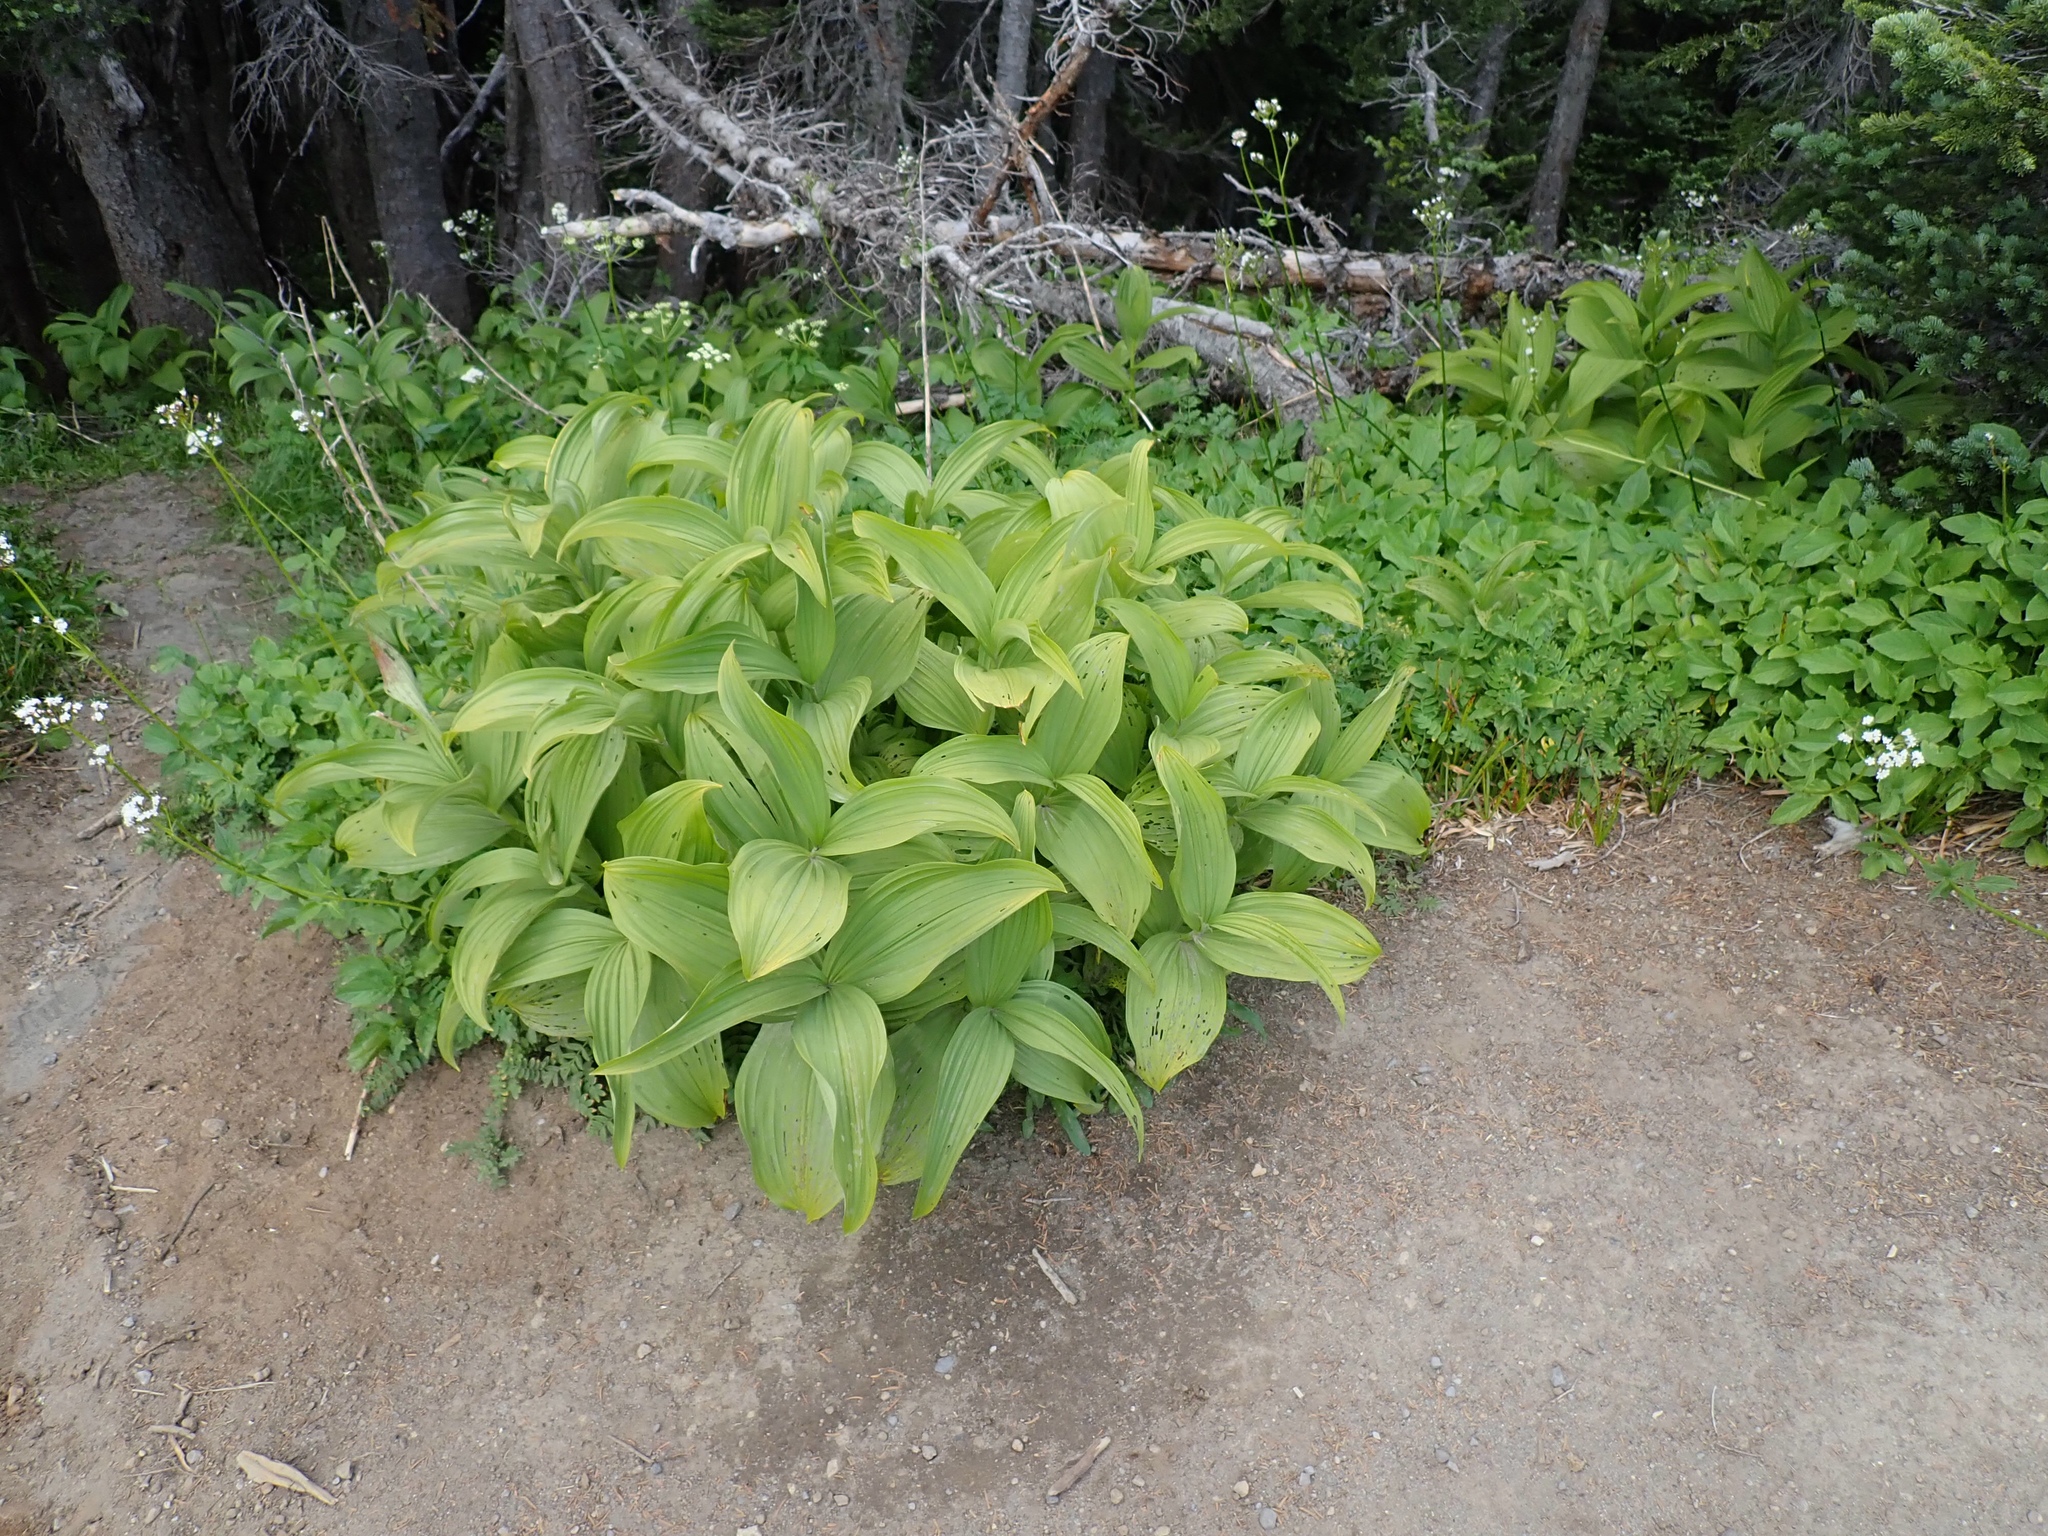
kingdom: Plantae
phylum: Tracheophyta
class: Liliopsida
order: Liliales
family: Melanthiaceae
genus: Veratrum
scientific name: Veratrum viride
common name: American false hellebore
